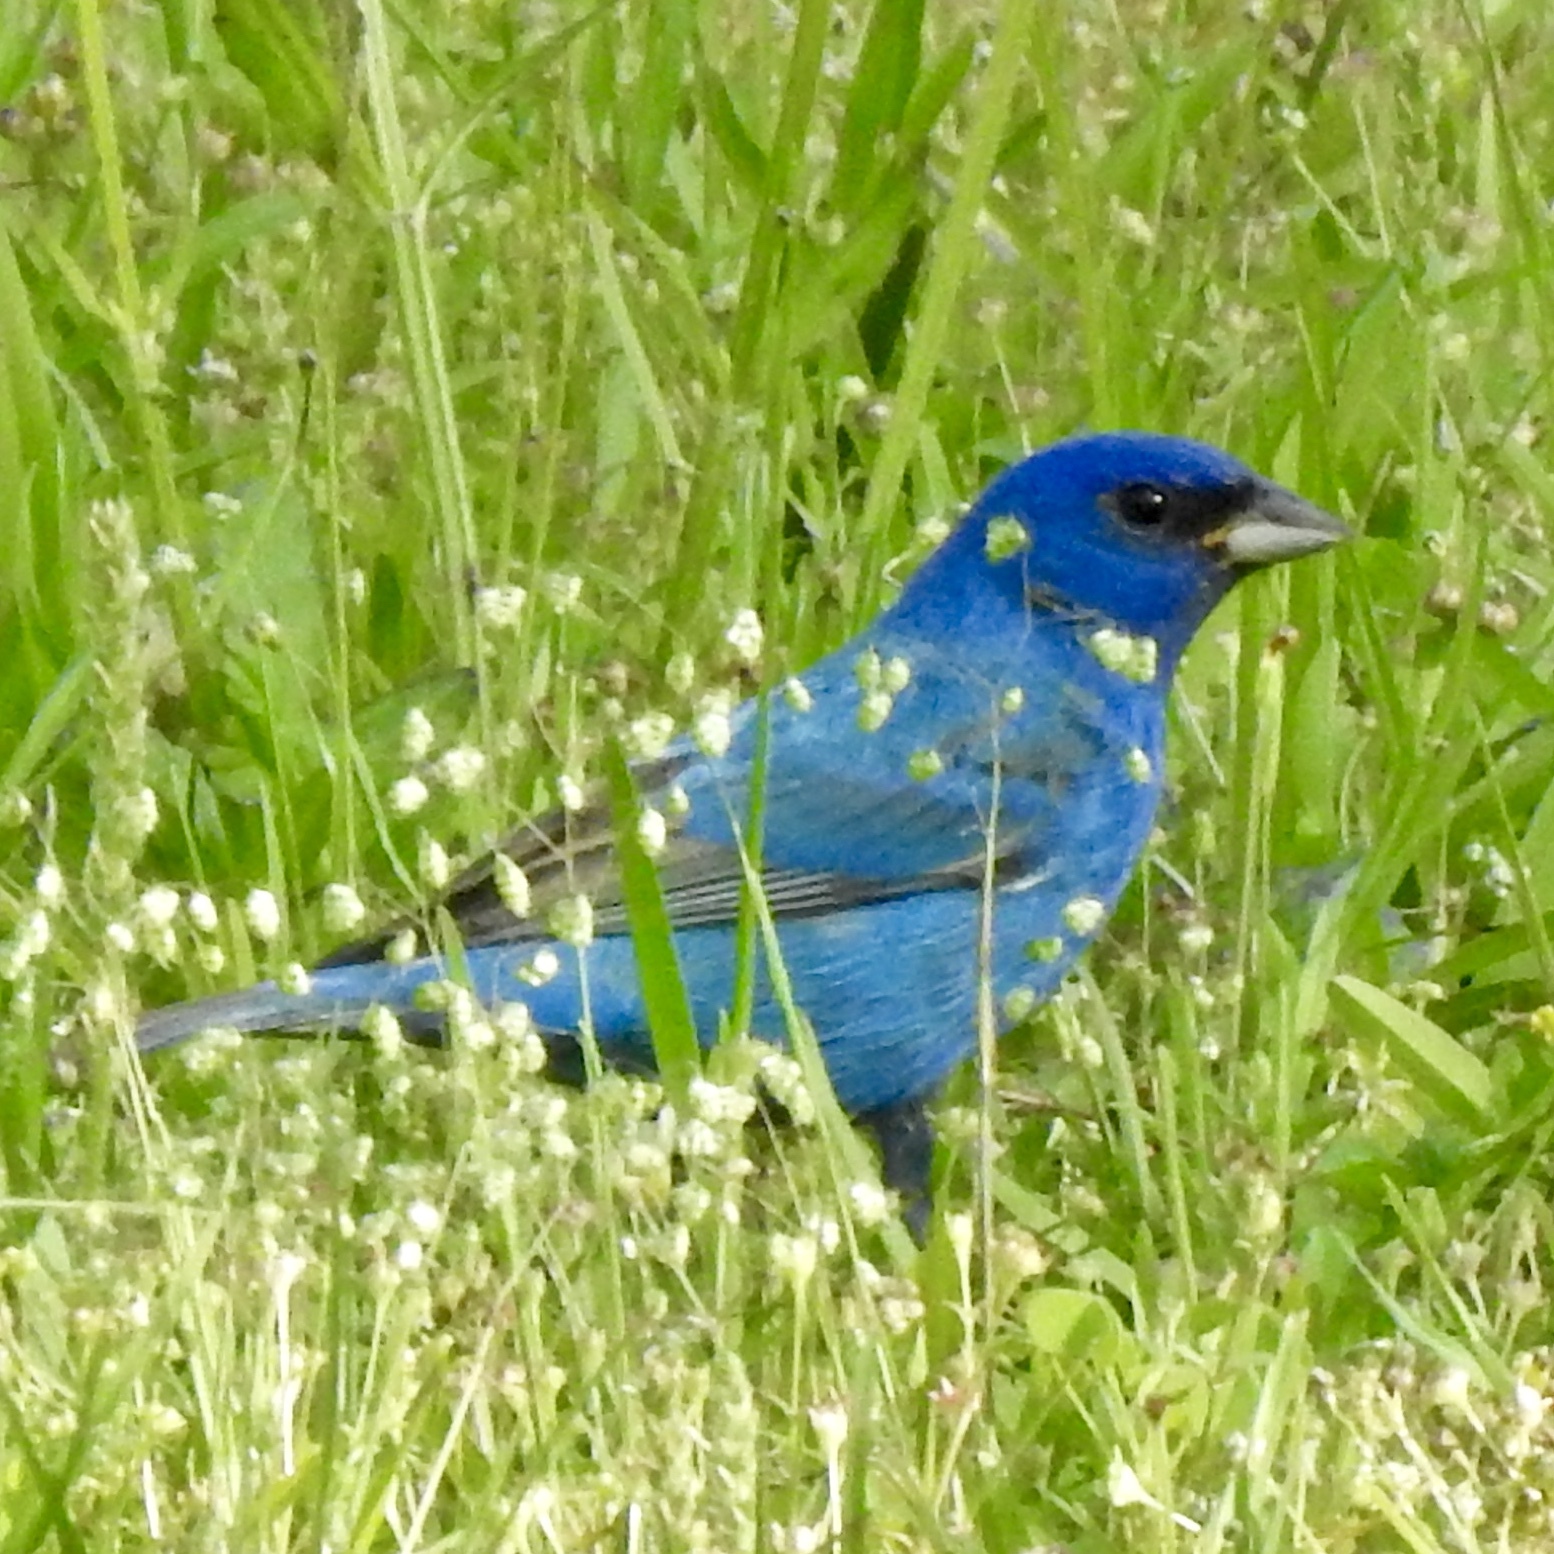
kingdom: Animalia
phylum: Chordata
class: Aves
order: Passeriformes
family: Cardinalidae
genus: Passerina
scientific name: Passerina cyanea
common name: Indigo bunting
